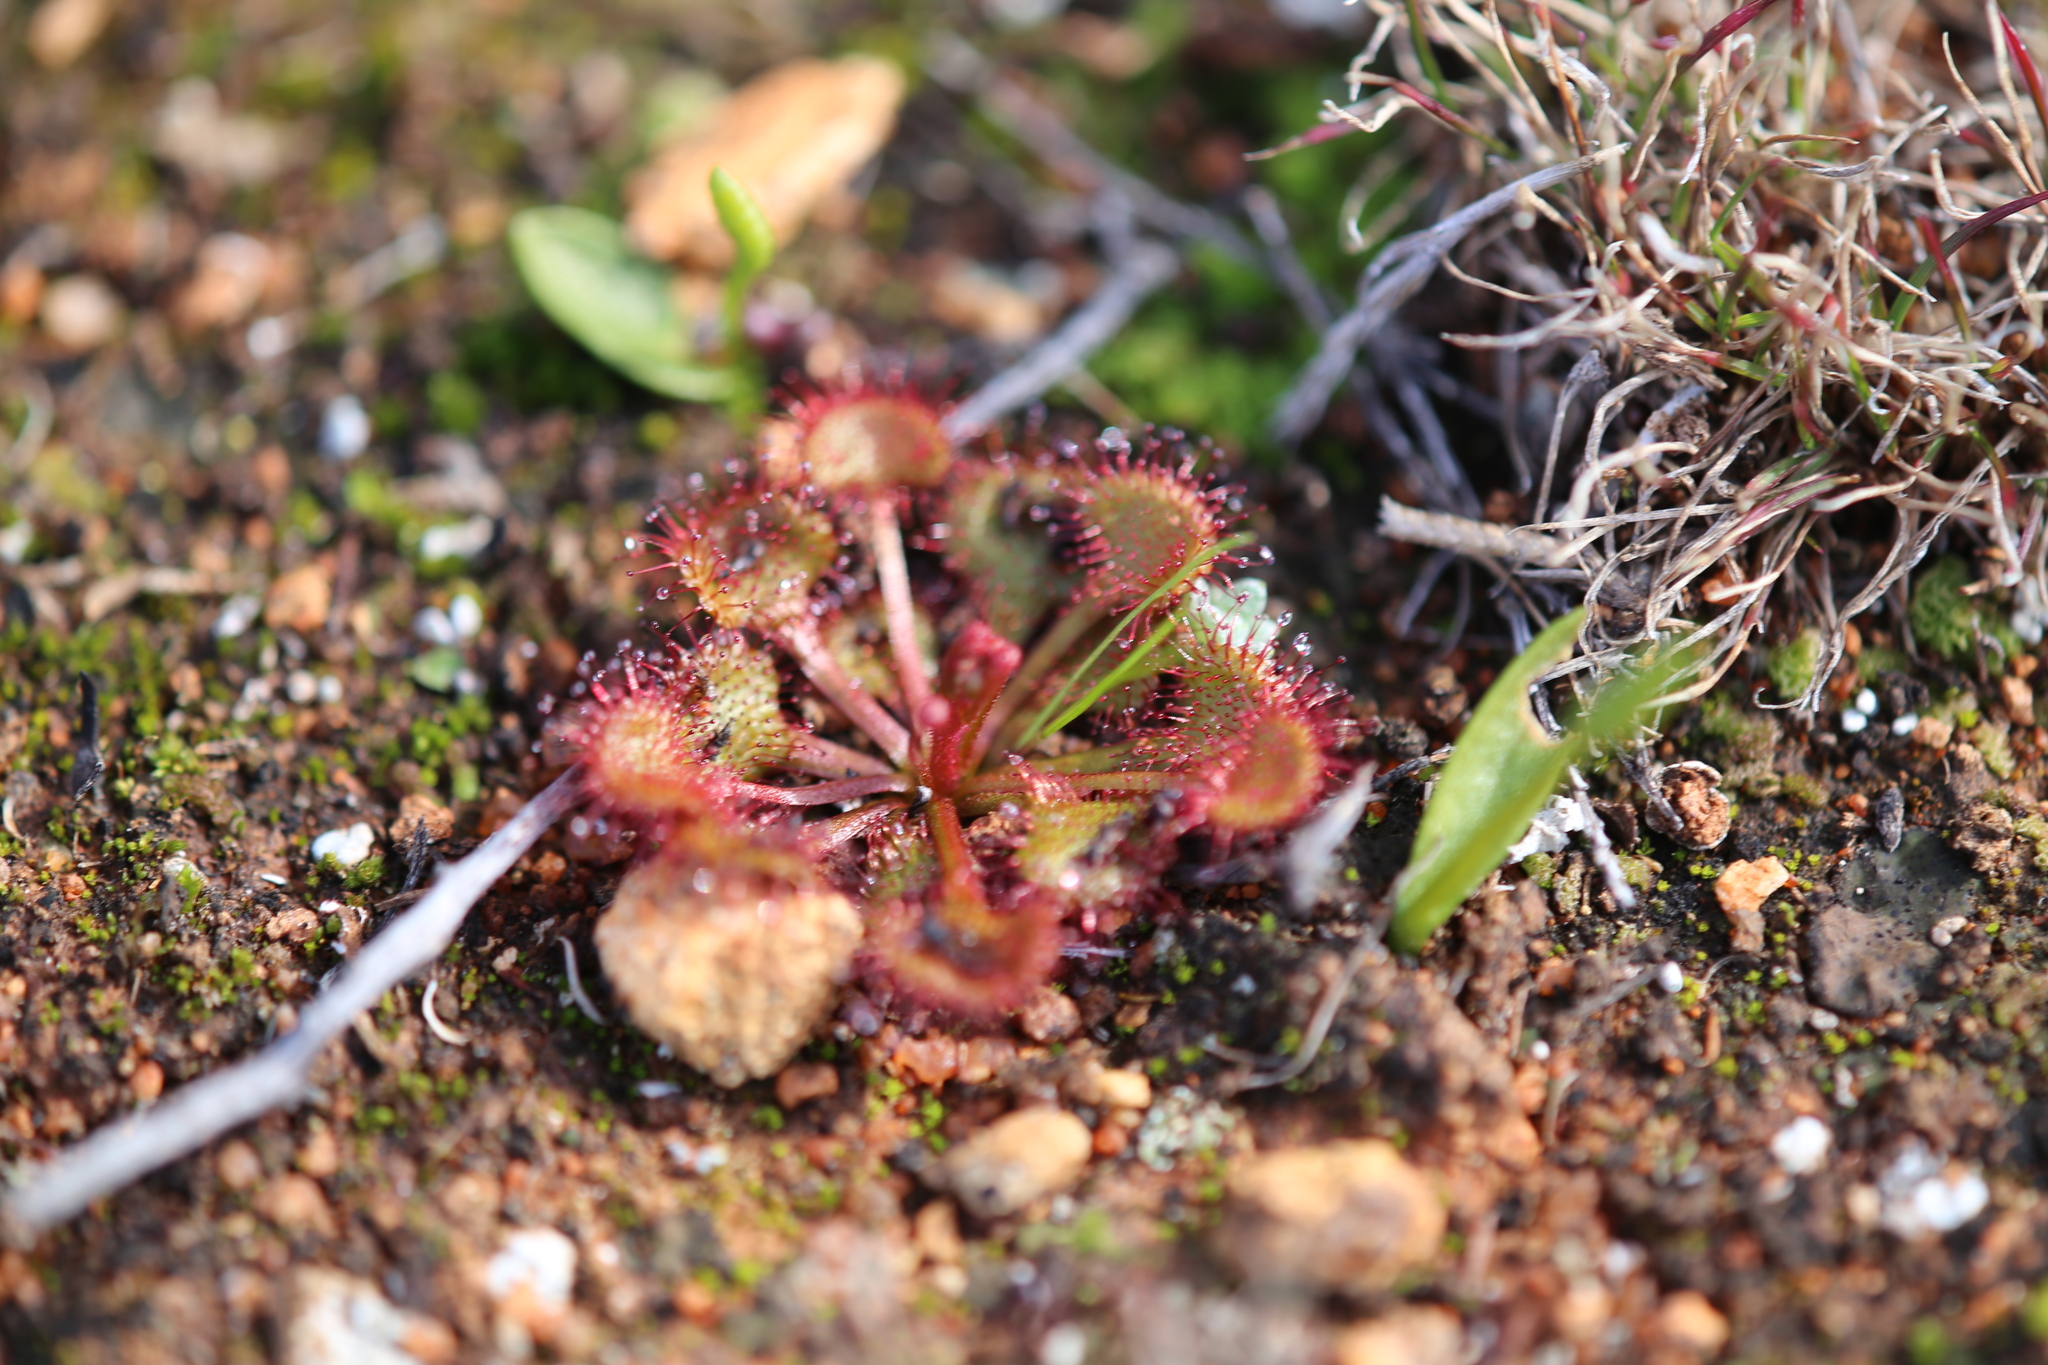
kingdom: Plantae
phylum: Tracheophyta
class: Magnoliopsida
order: Caryophyllales
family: Droseraceae
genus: Drosera
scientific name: Drosera andersoniana
